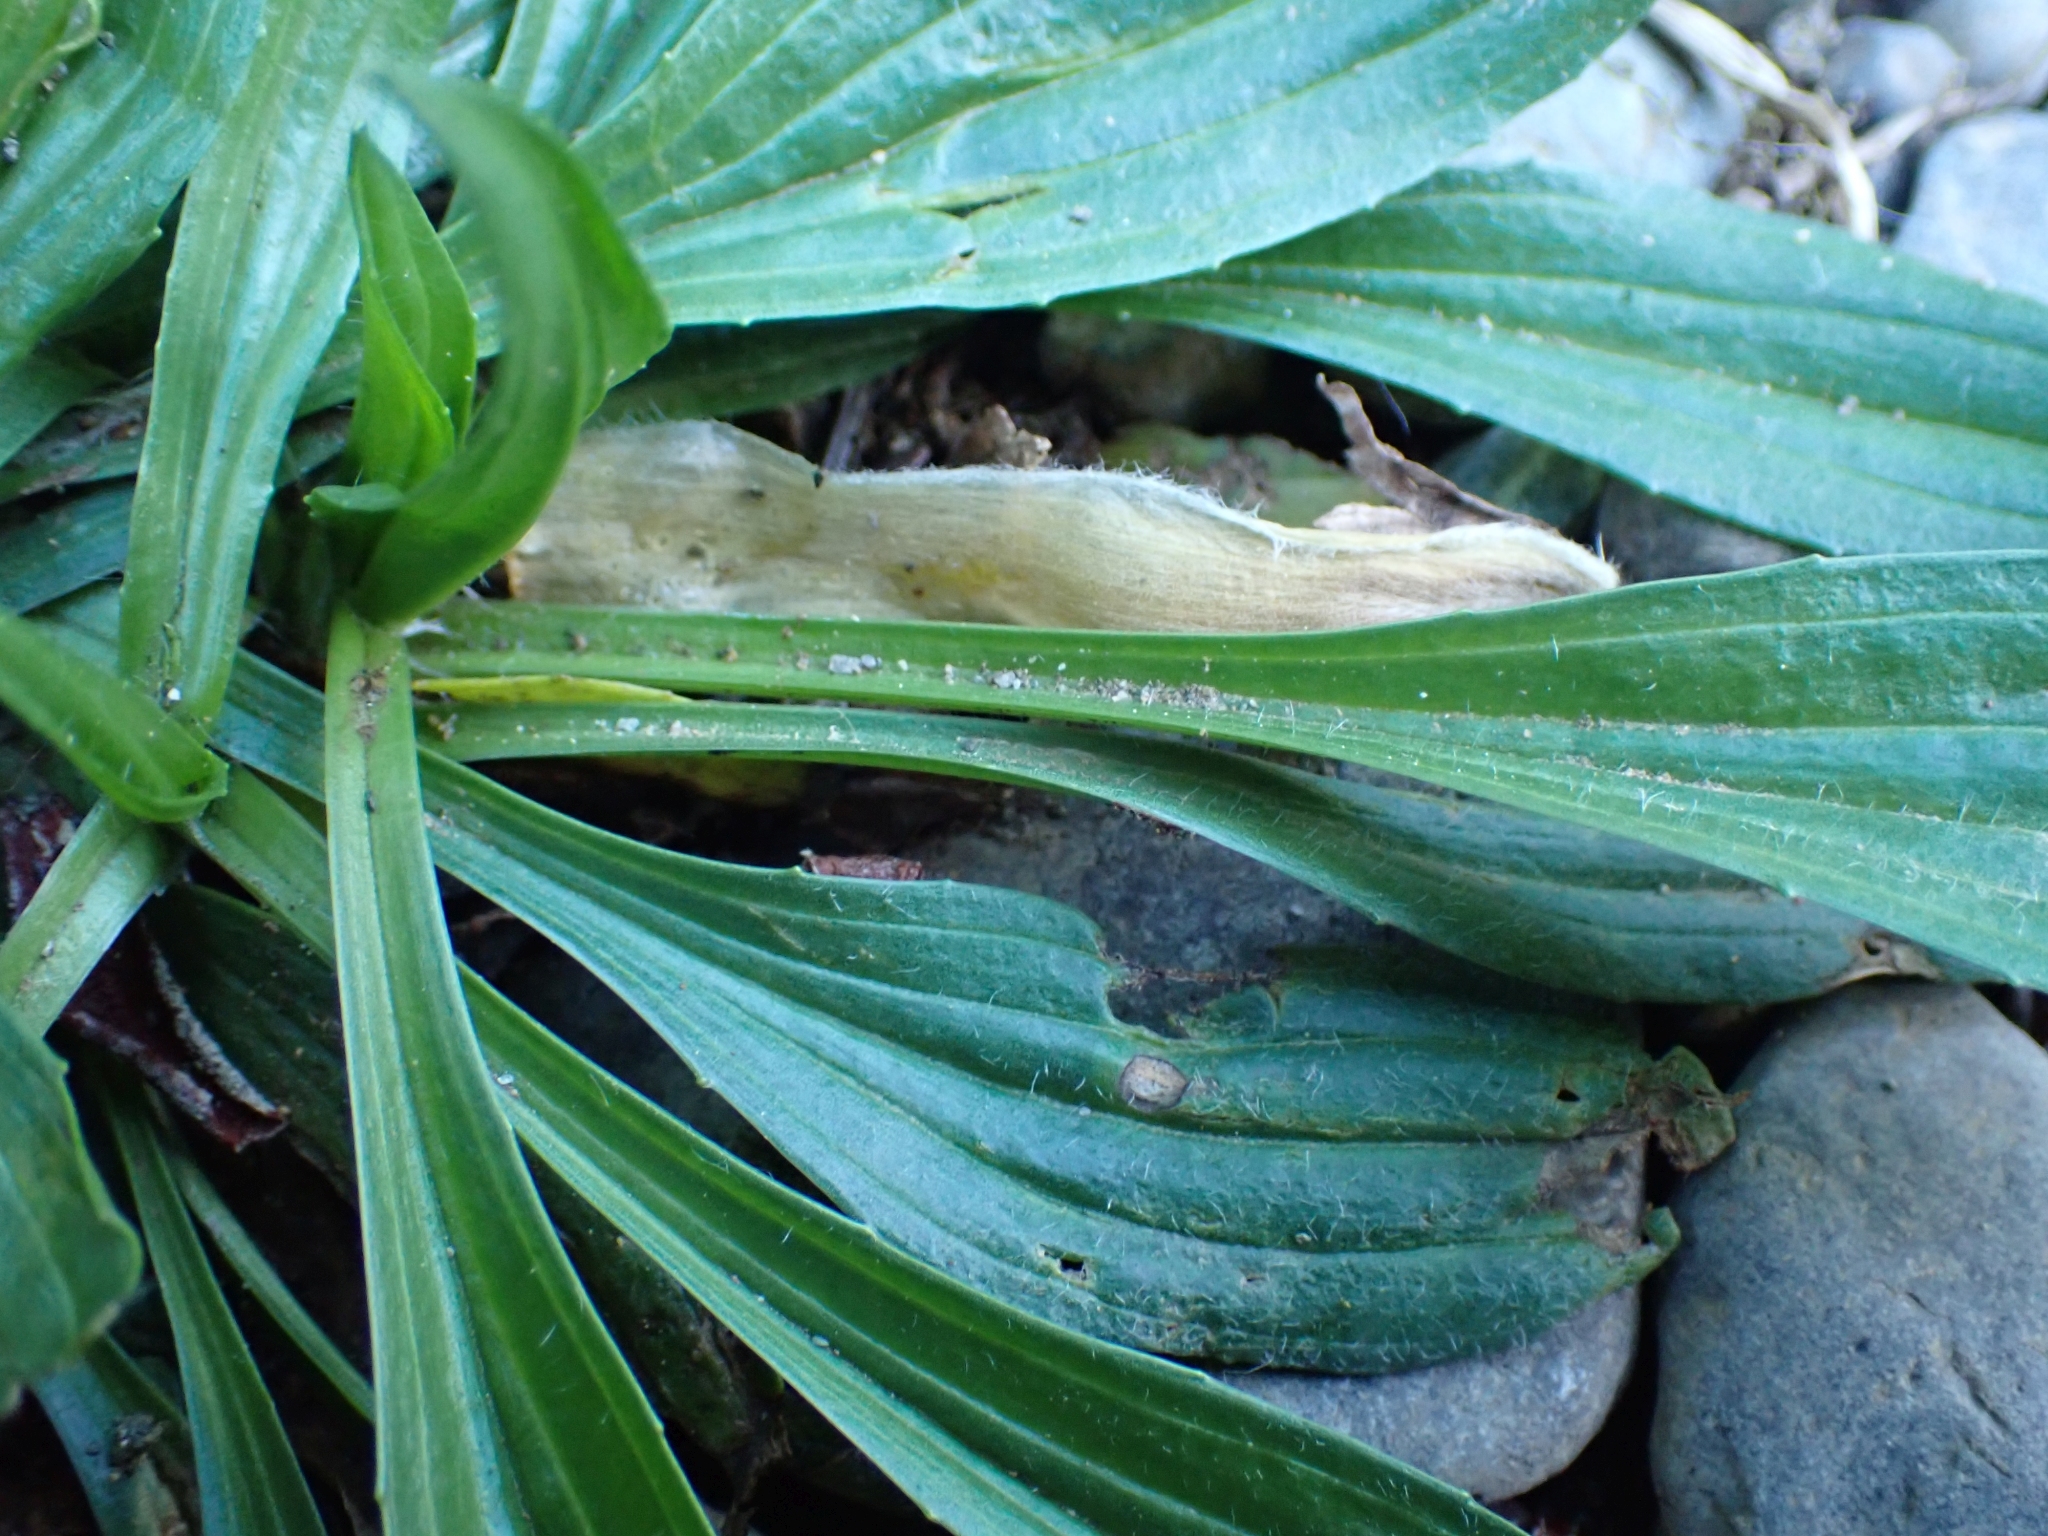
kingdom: Plantae
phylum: Tracheophyta
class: Magnoliopsida
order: Lamiales
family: Plantaginaceae
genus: Plantago
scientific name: Plantago lanceolata
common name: Ribwort plantain
